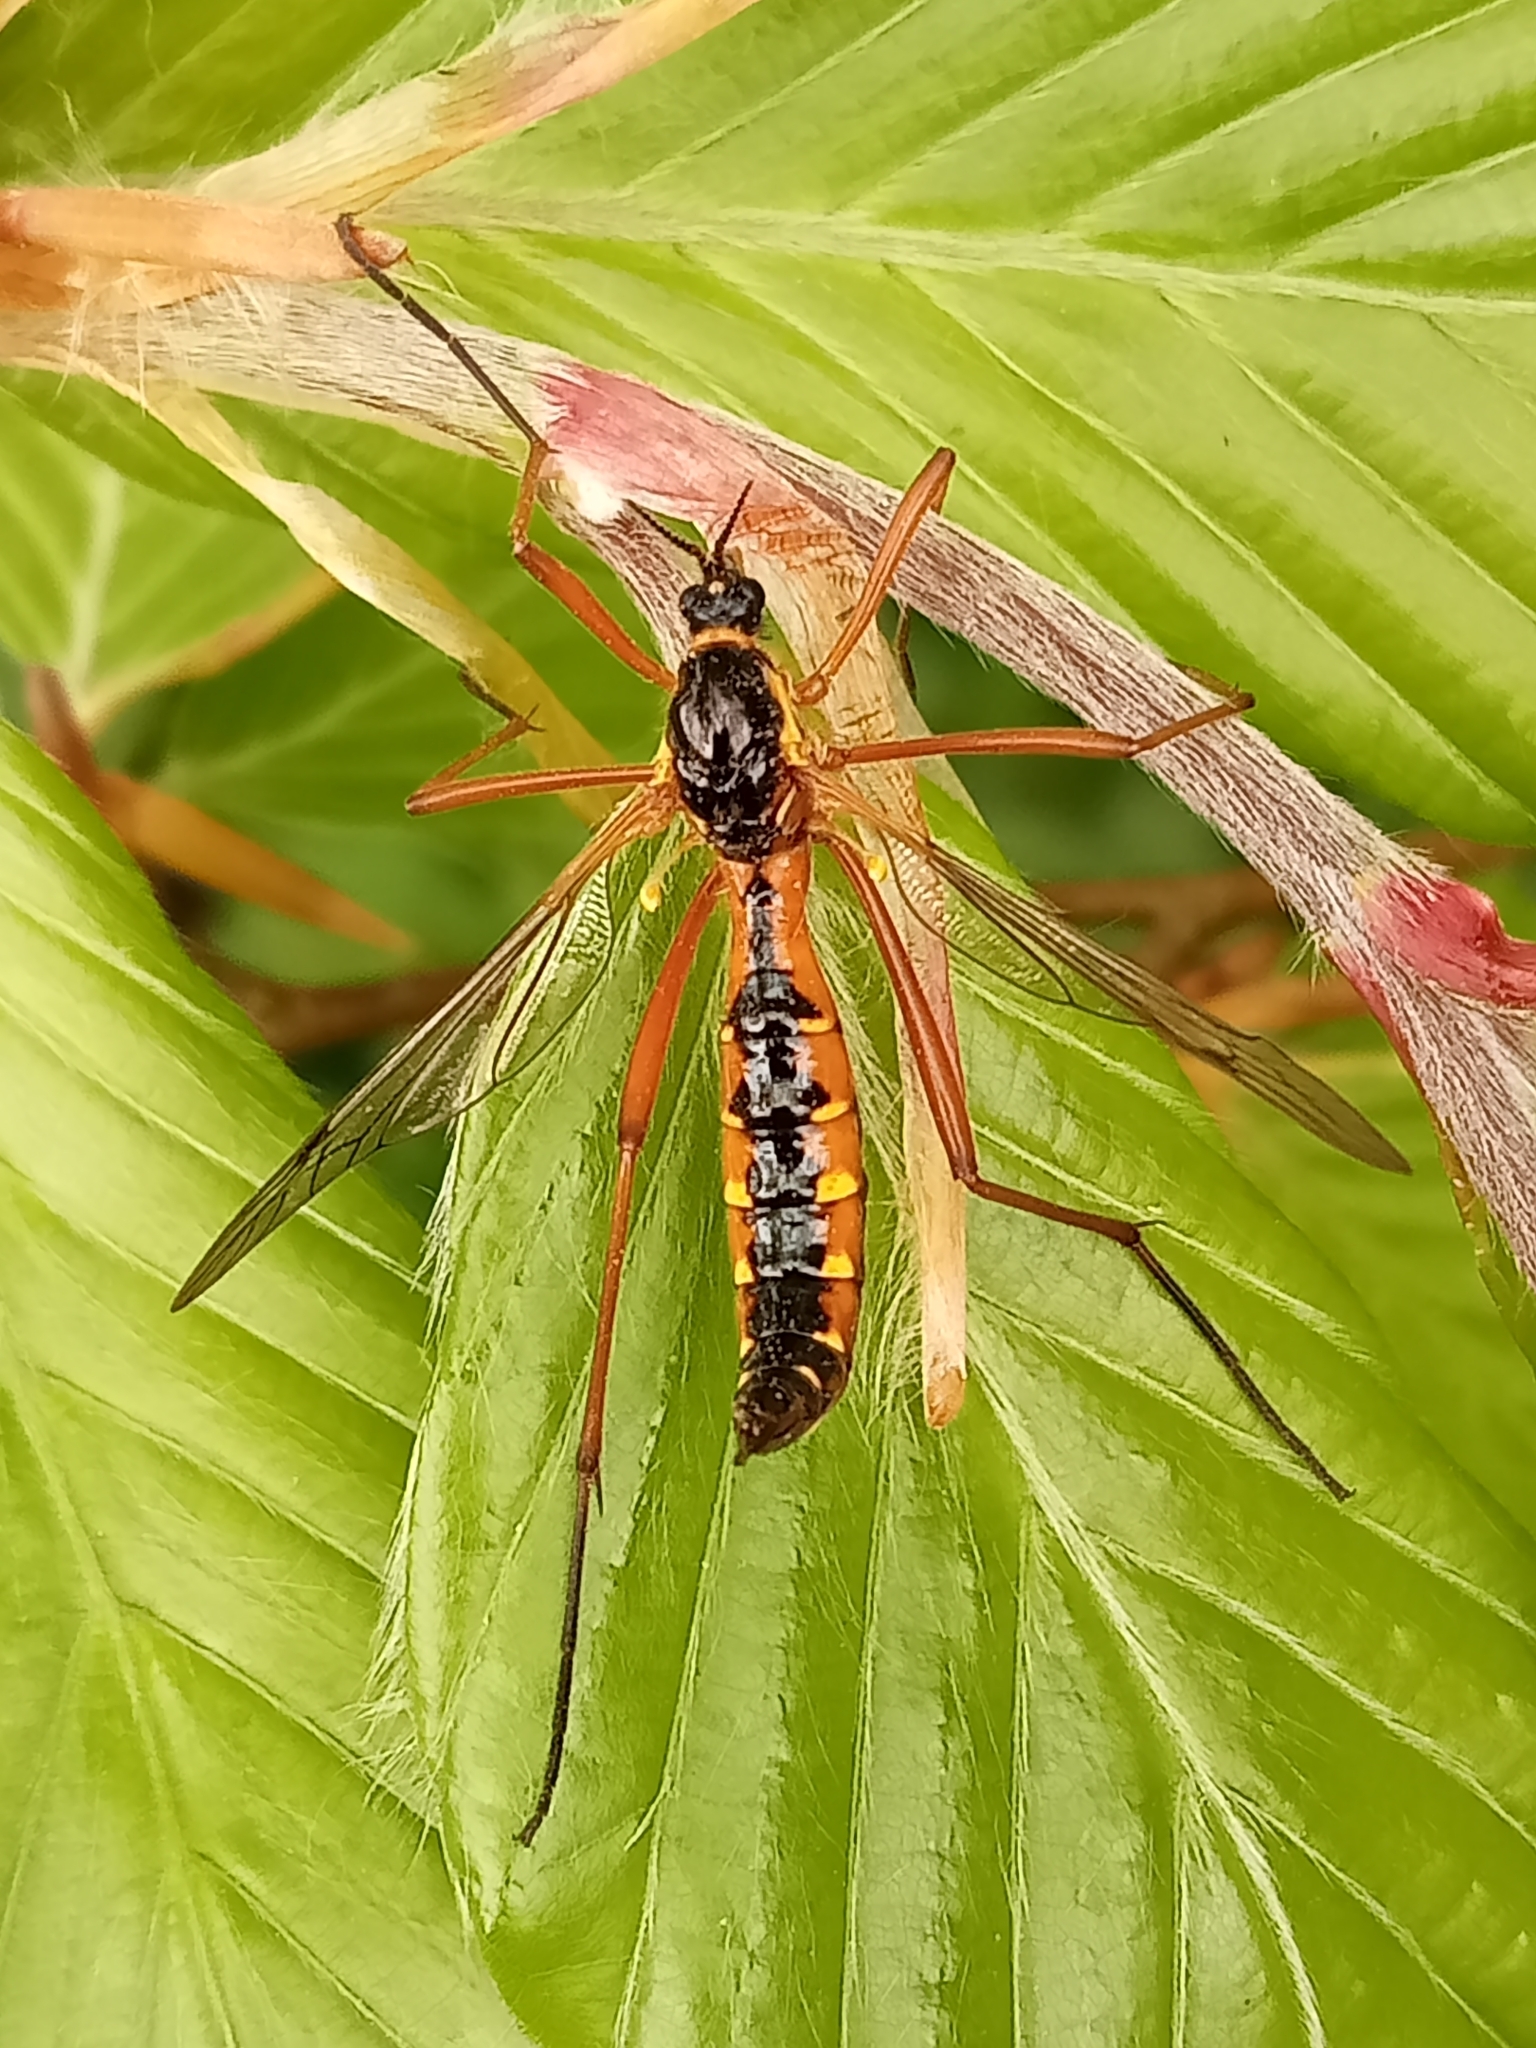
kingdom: Animalia
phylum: Arthropoda
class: Insecta
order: Diptera
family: Tipulidae
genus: Ctenophora
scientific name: Ctenophora pectinicornis
